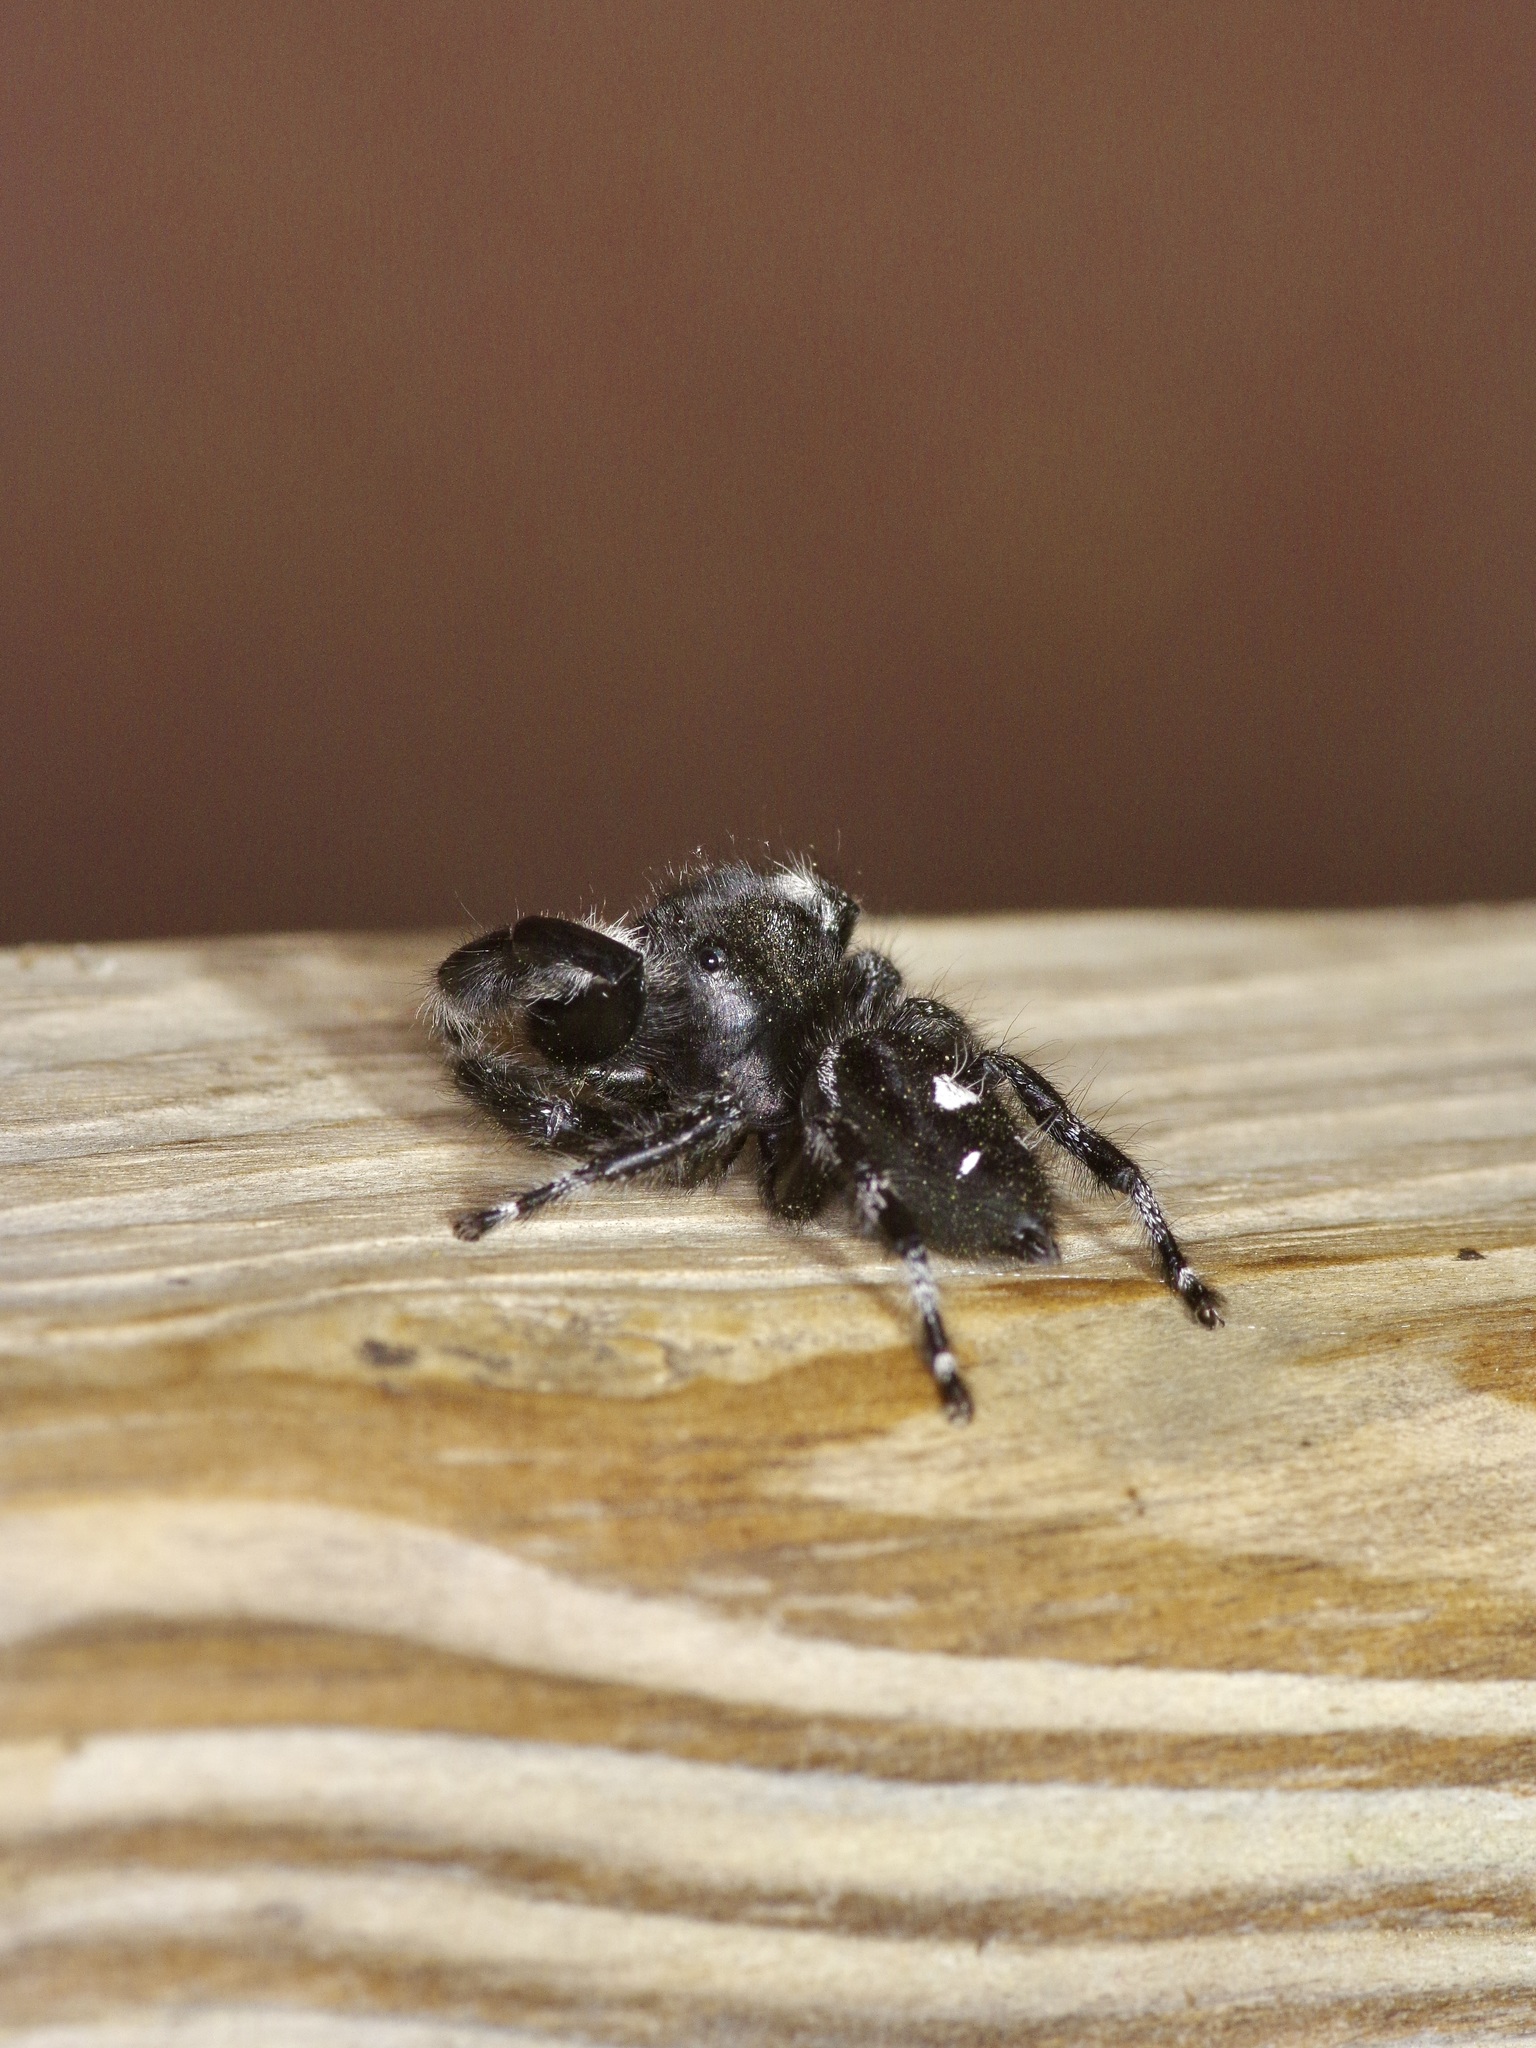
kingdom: Animalia
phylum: Arthropoda
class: Arachnida
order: Araneae
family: Salticidae
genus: Phidippus
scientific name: Phidippus audax
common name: Bold jumper
